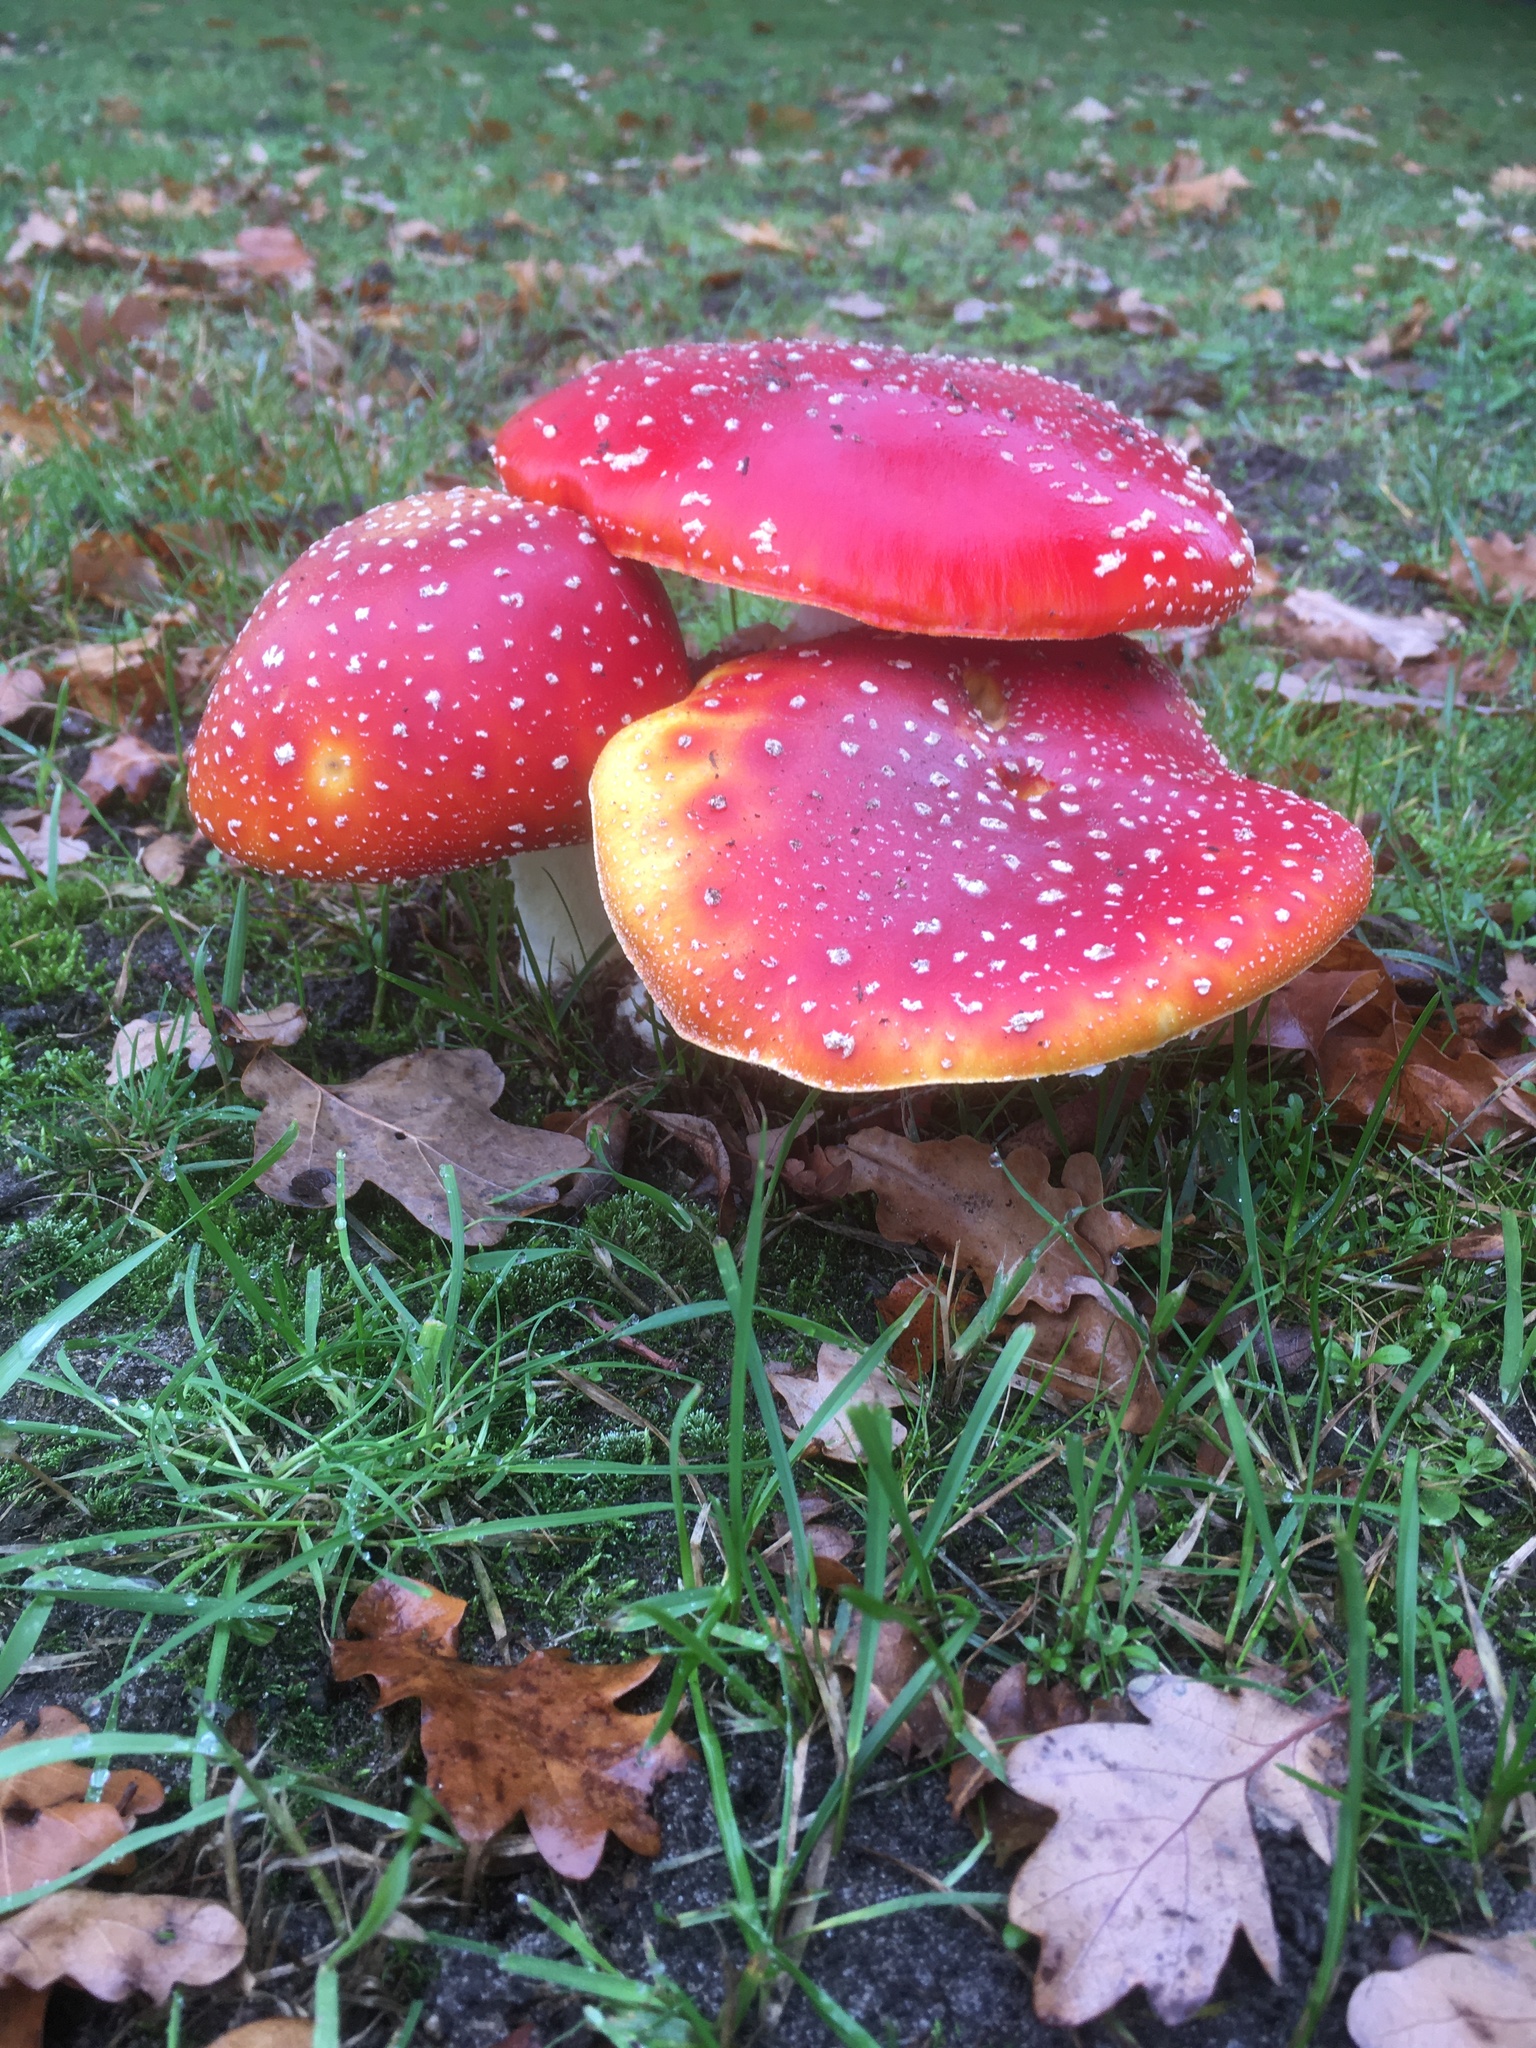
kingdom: Fungi
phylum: Basidiomycota
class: Agaricomycetes
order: Agaricales
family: Amanitaceae
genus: Amanita
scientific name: Amanita muscaria
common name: Fly agaric
